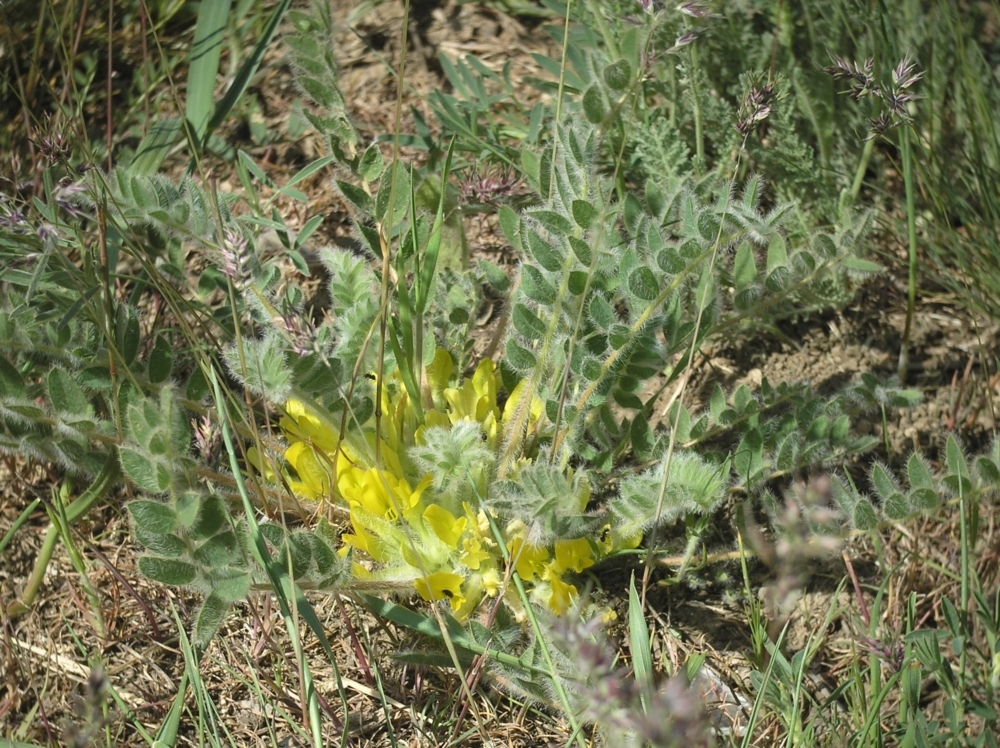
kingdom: Plantae
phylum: Tracheophyta
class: Magnoliopsida
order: Fabales
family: Fabaceae
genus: Astragalus
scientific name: Astragalus exscapus
